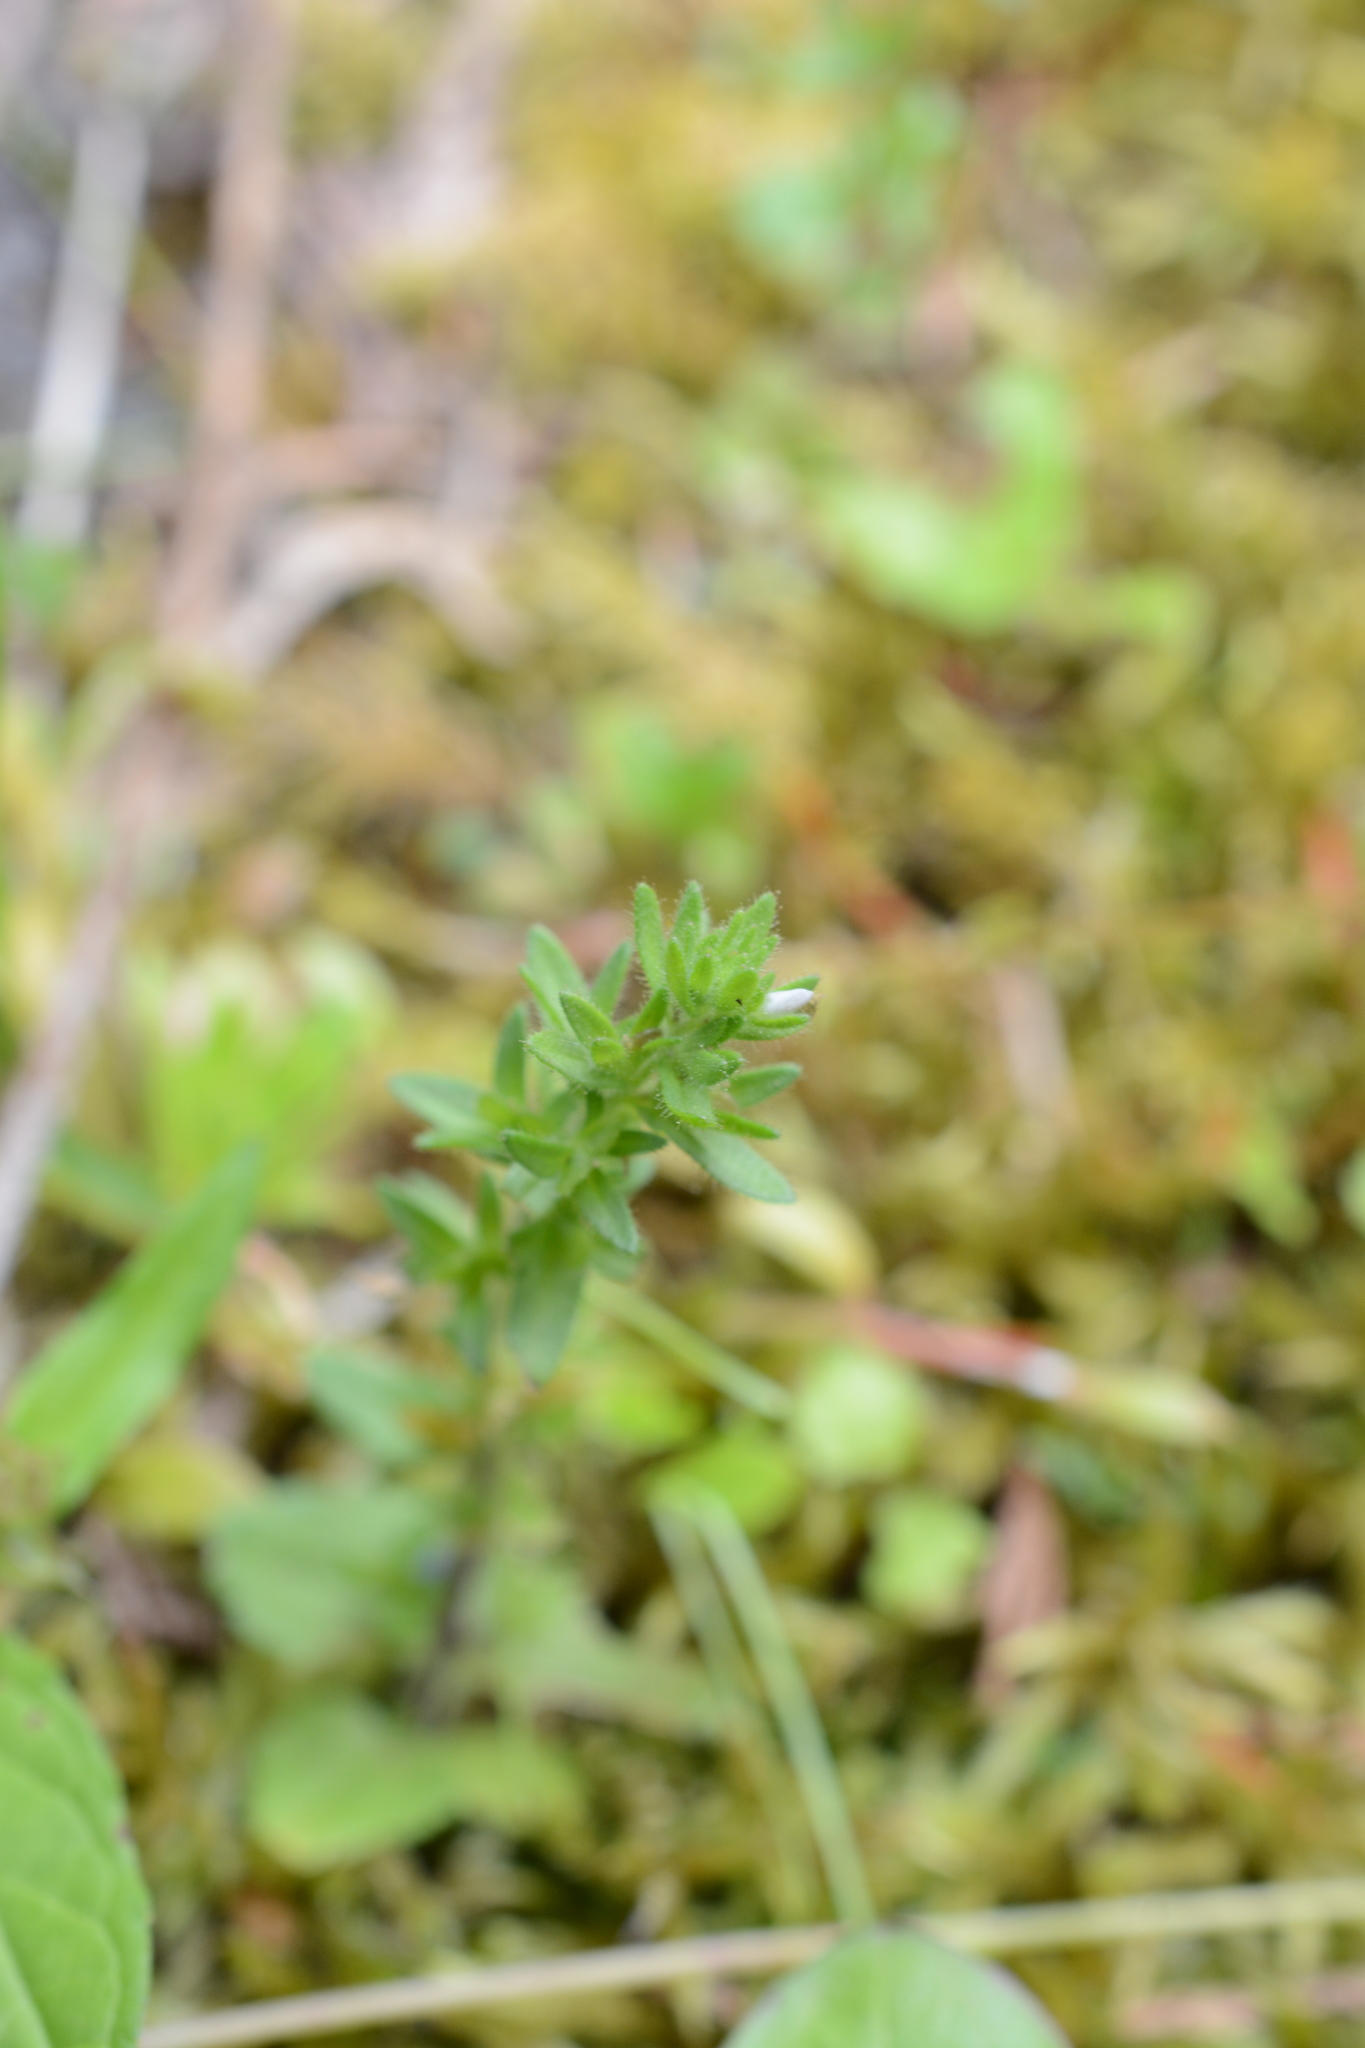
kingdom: Plantae
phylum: Tracheophyta
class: Magnoliopsida
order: Lamiales
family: Plantaginaceae
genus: Veronica
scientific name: Veronica arvensis
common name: Corn speedwell
